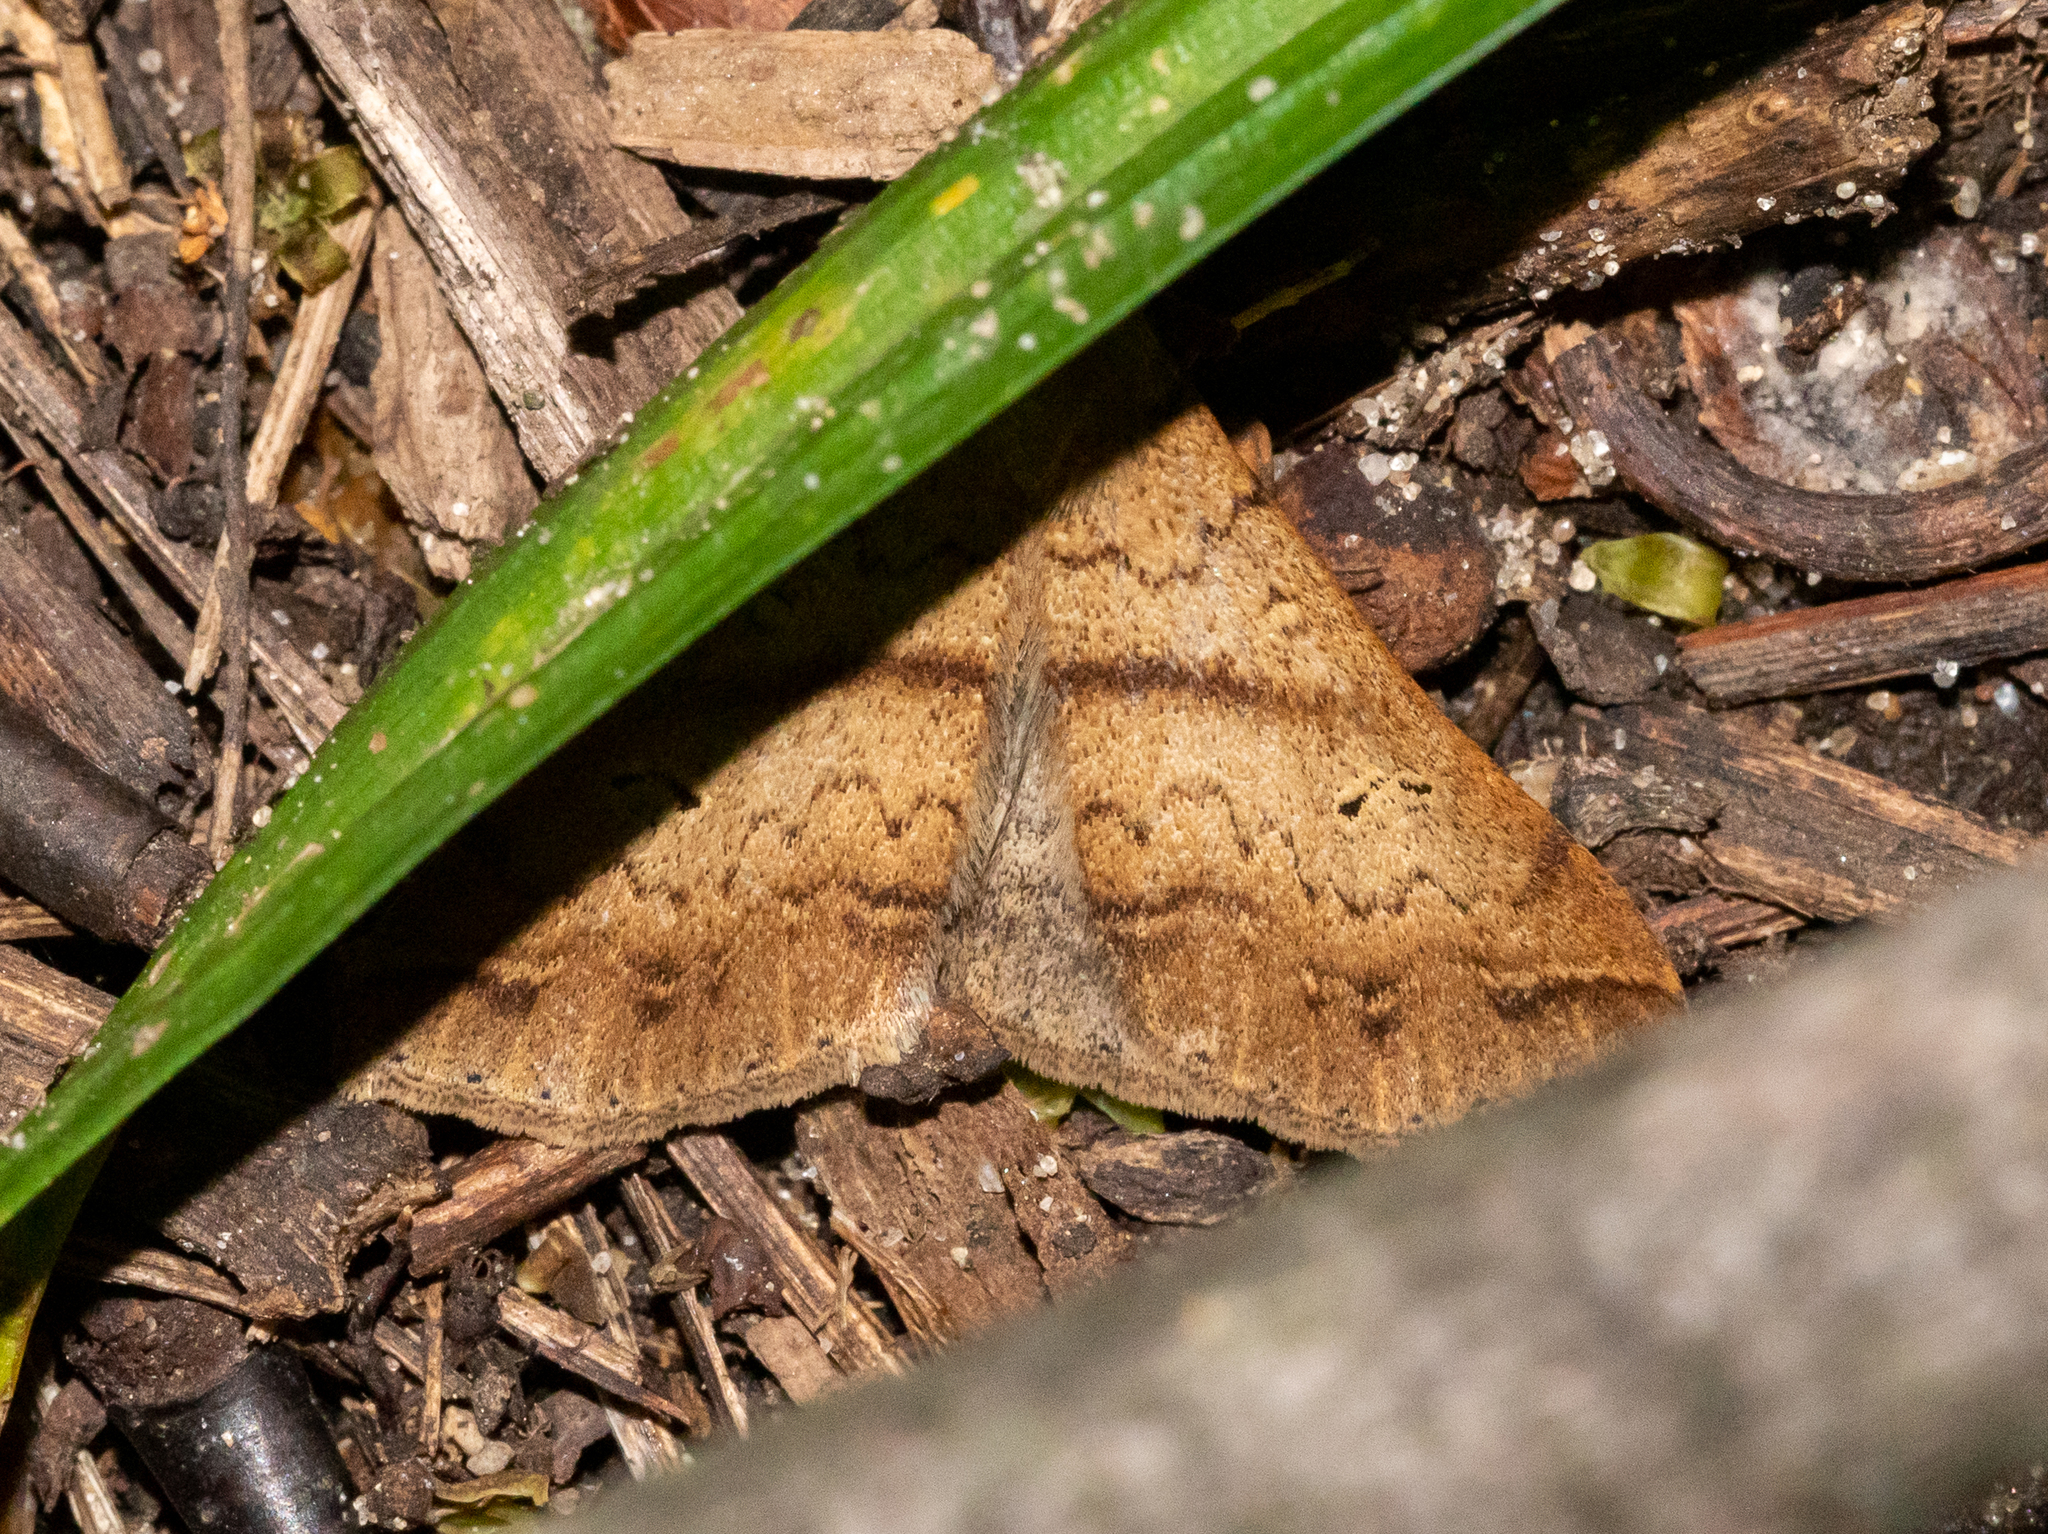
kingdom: Animalia
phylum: Arthropoda
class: Insecta
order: Lepidoptera
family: Erebidae
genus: Renia
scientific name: Renia discoloralis
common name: Discolored renia moth
